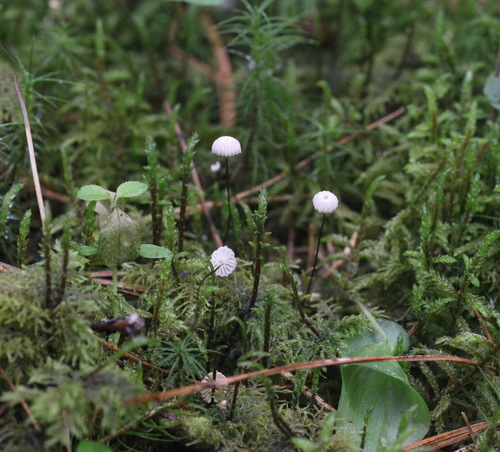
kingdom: Fungi
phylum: Basidiomycota
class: Agaricomycetes
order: Agaricales
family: Marasmiaceae
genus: Marasmius
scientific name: Marasmius rotula
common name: Collared parachute
